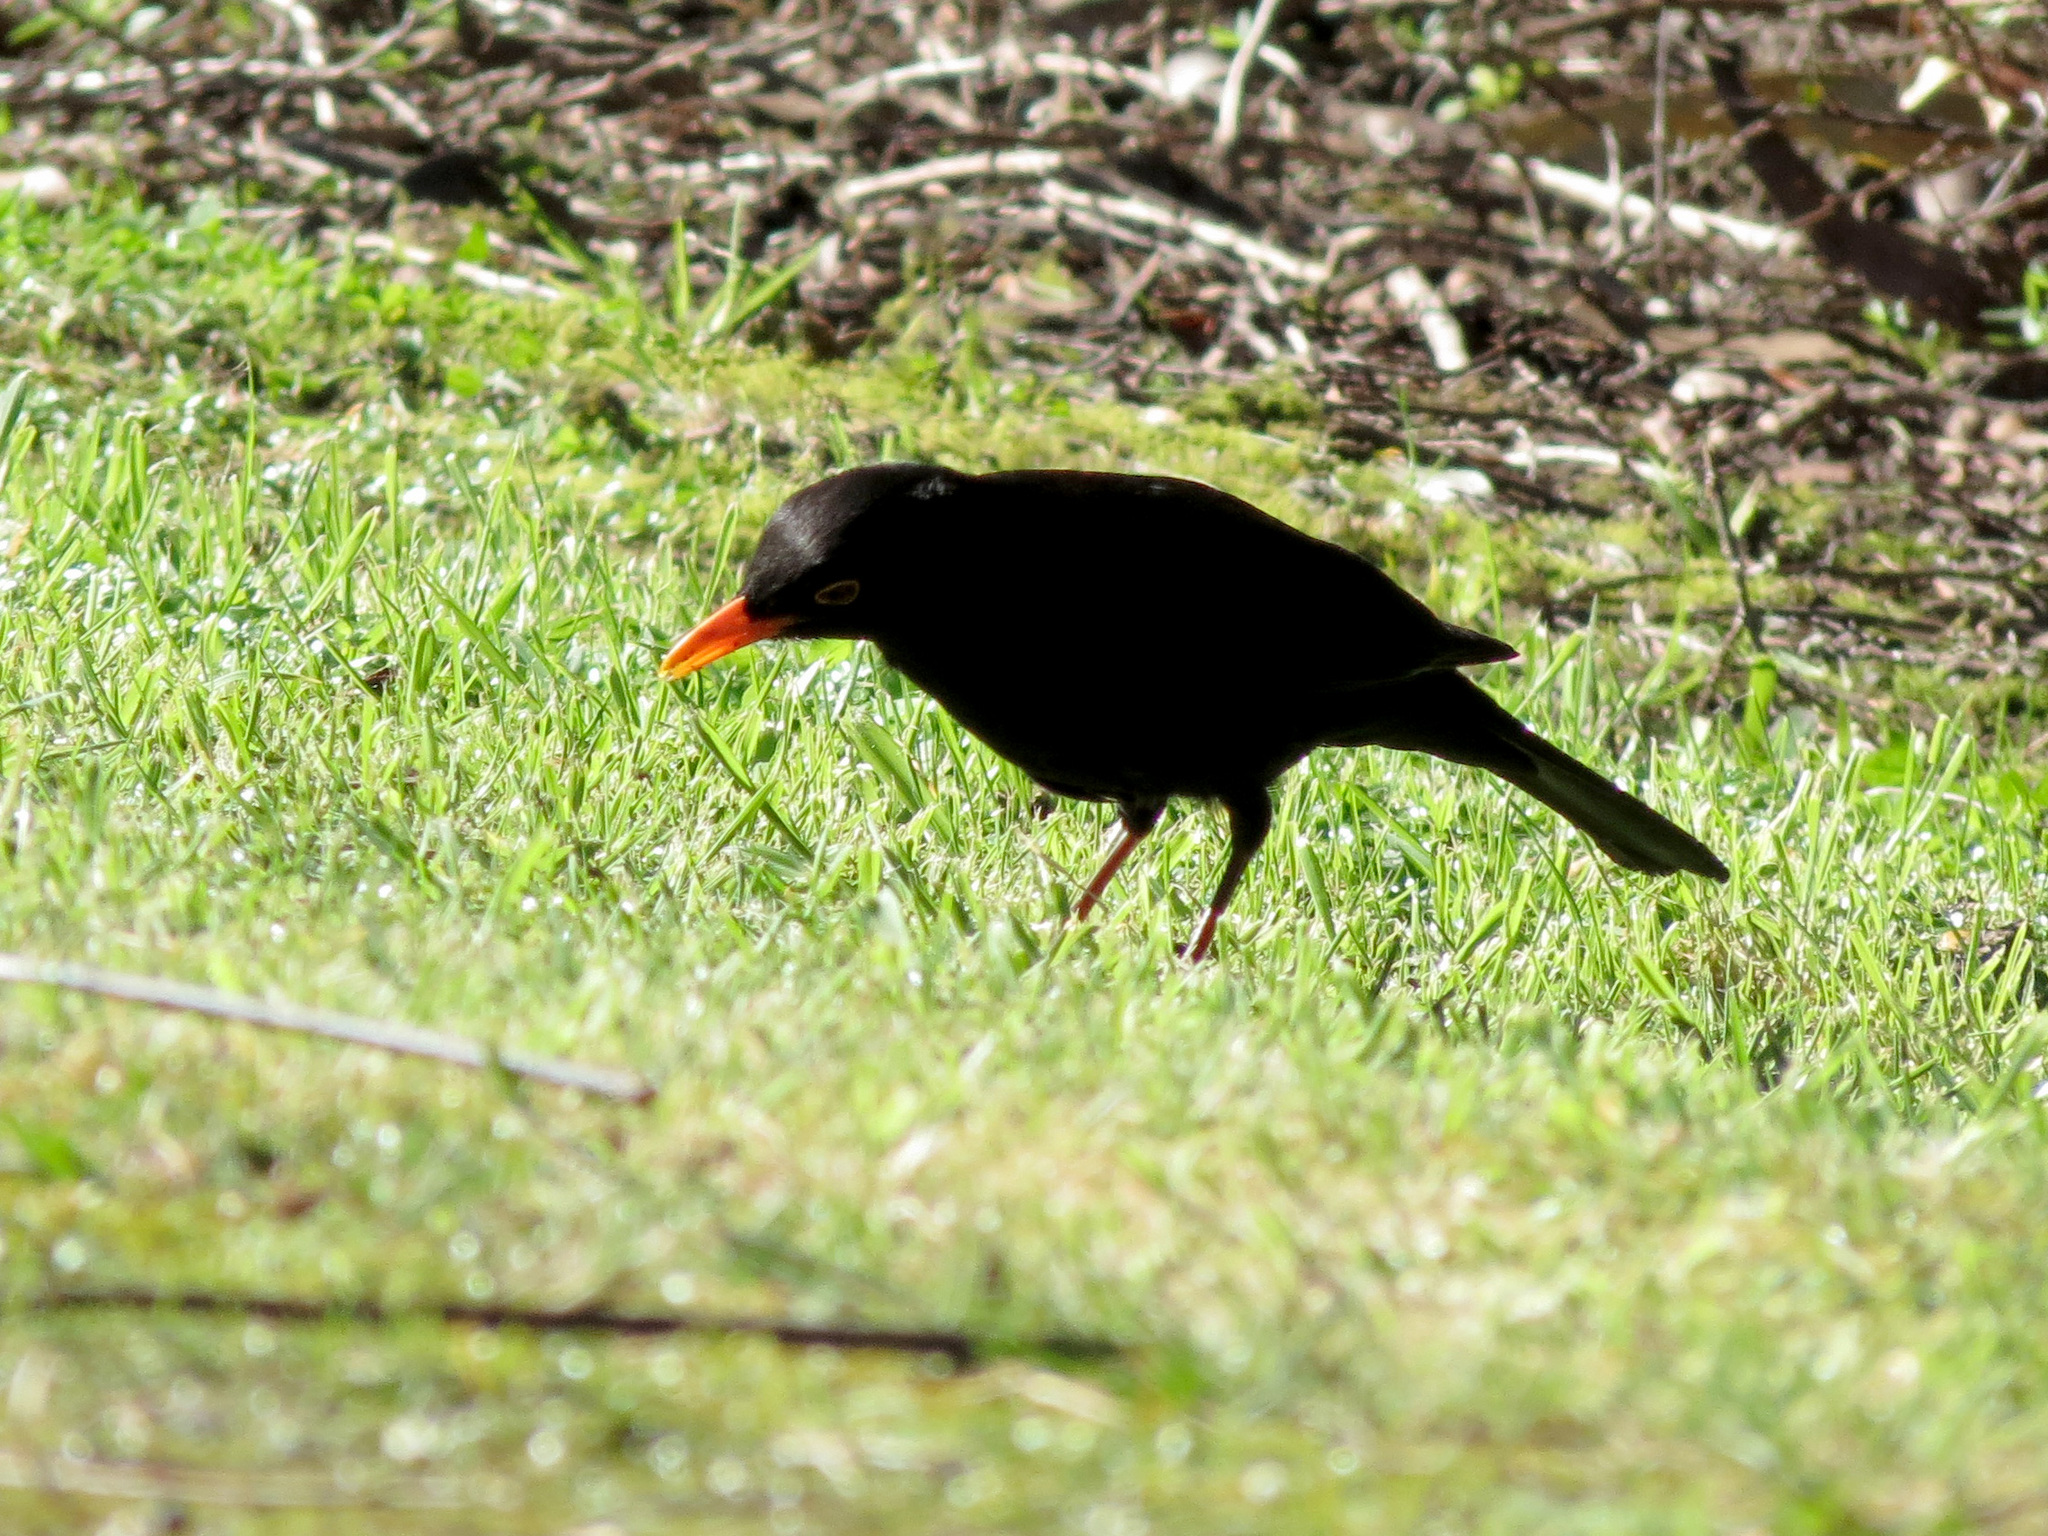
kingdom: Animalia
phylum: Chordata
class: Aves
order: Passeriformes
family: Turdidae
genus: Turdus
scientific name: Turdus merula
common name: Common blackbird
